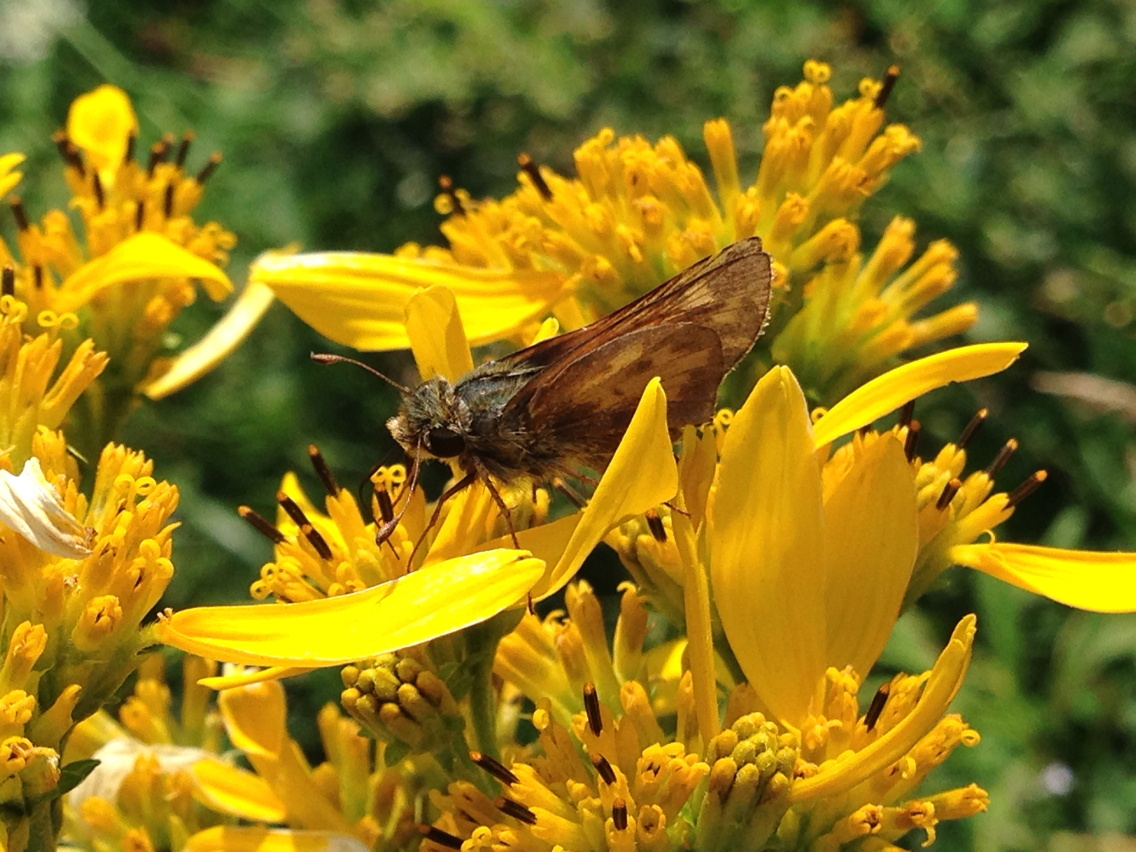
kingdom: Animalia
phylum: Arthropoda
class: Insecta
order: Lepidoptera
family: Hesperiidae
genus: Lon
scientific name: Lon zabulon
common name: Zabulon skipper
